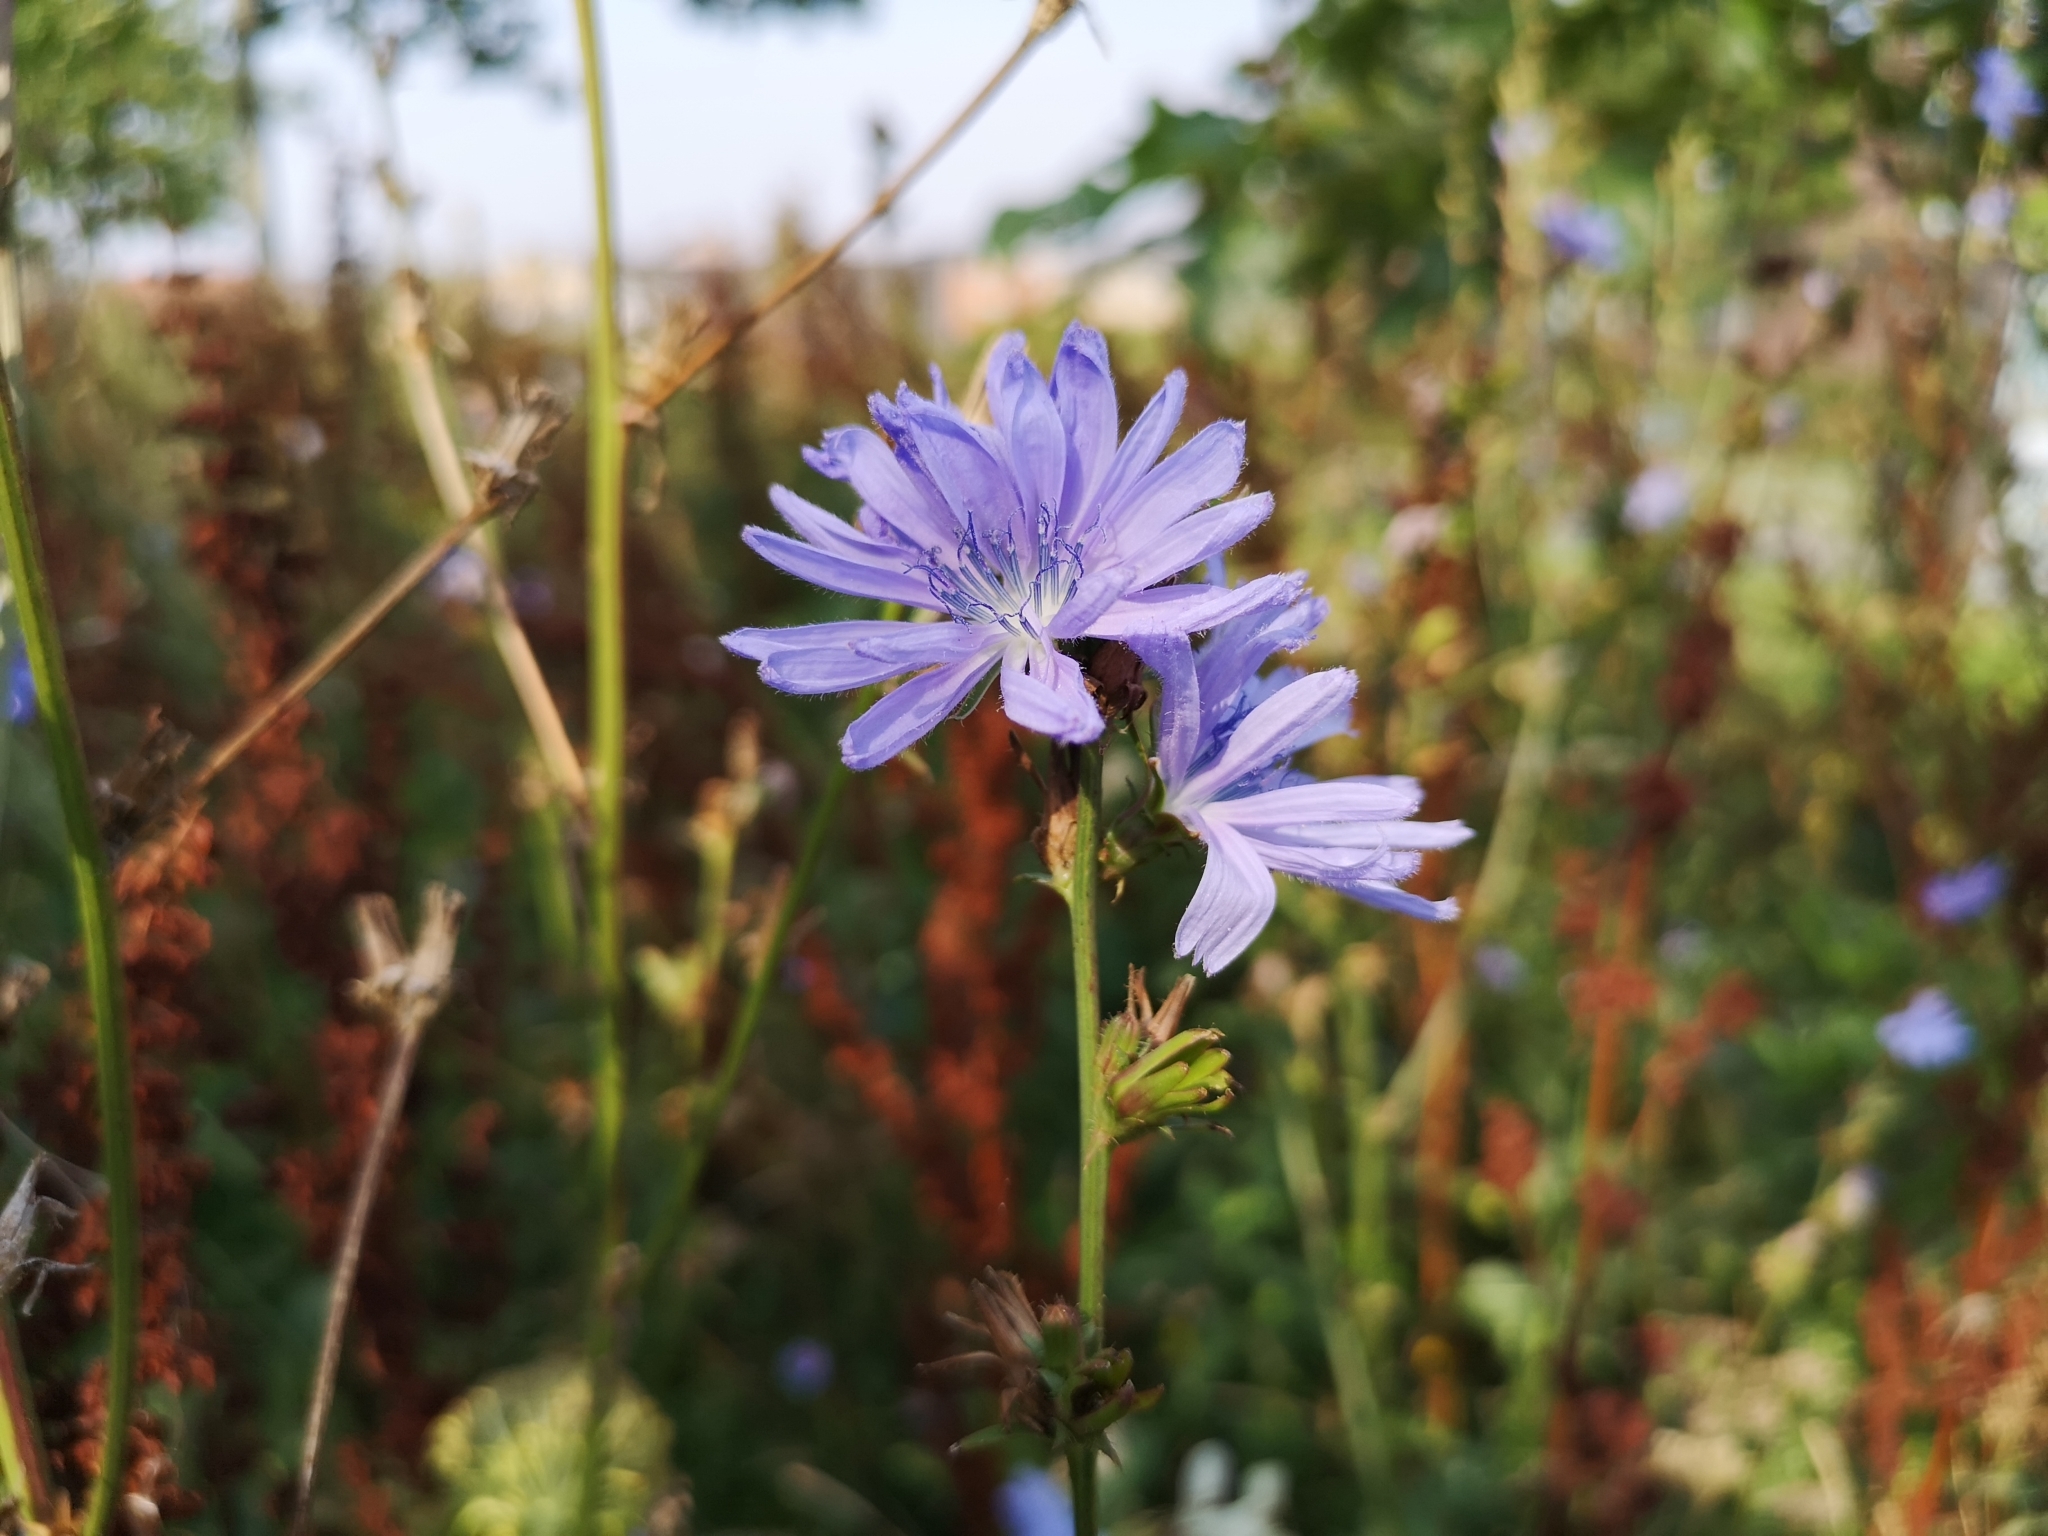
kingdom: Plantae
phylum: Tracheophyta
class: Magnoliopsida
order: Asterales
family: Asteraceae
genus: Cichorium
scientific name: Cichorium intybus
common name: Chicory
